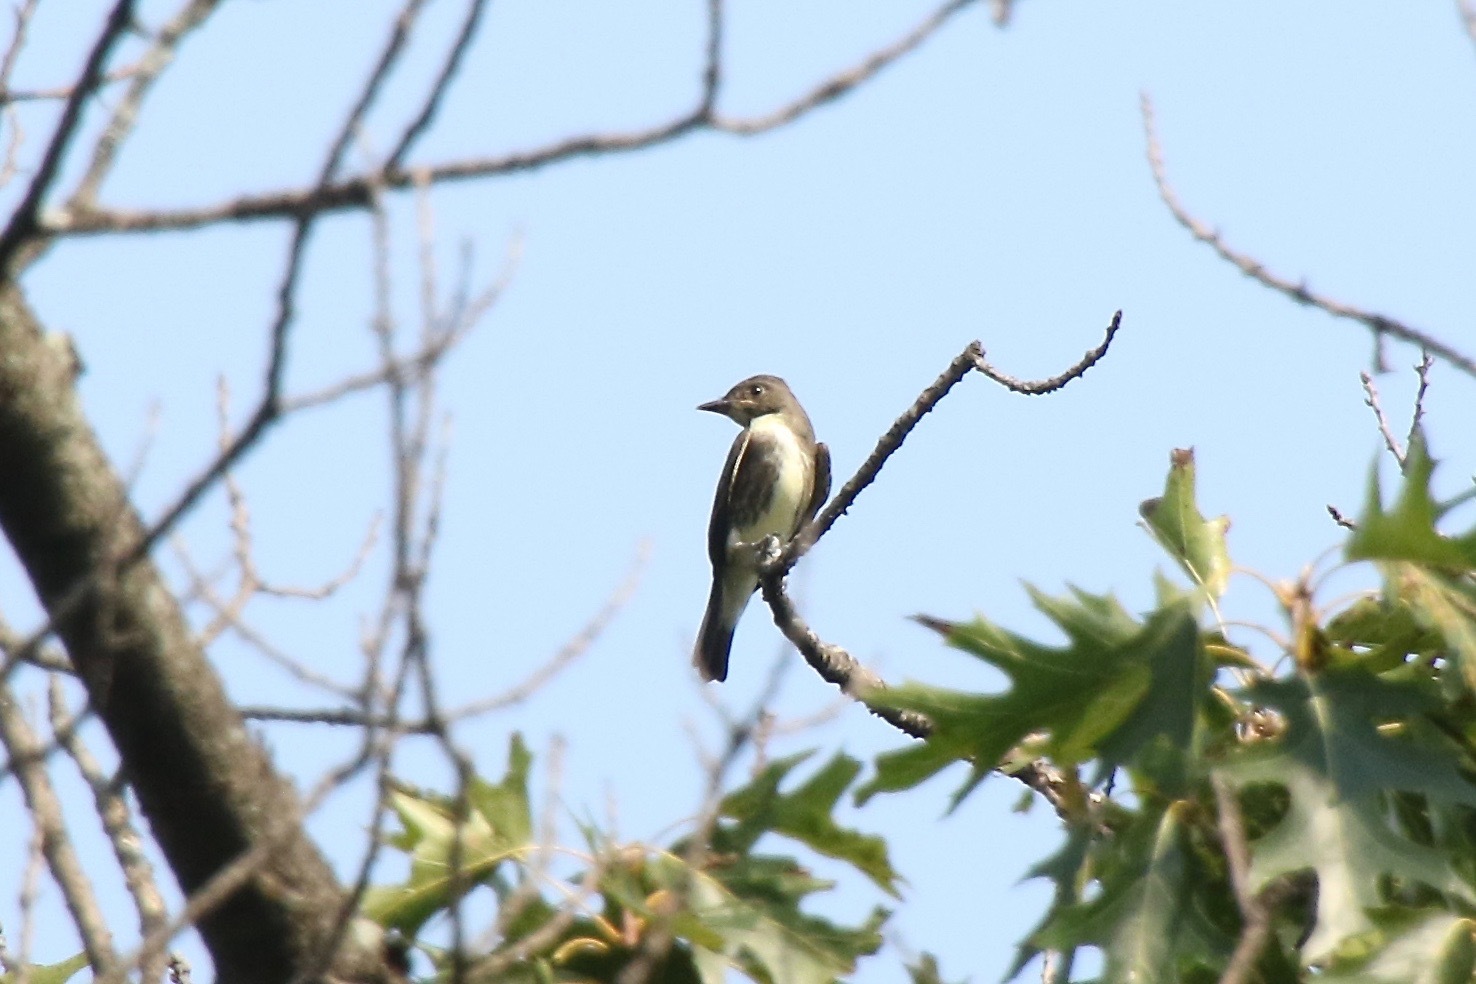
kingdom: Animalia
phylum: Chordata
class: Aves
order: Passeriformes
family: Tyrannidae
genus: Contopus
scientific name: Contopus cooperi
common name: Olive-sided flycatcher
